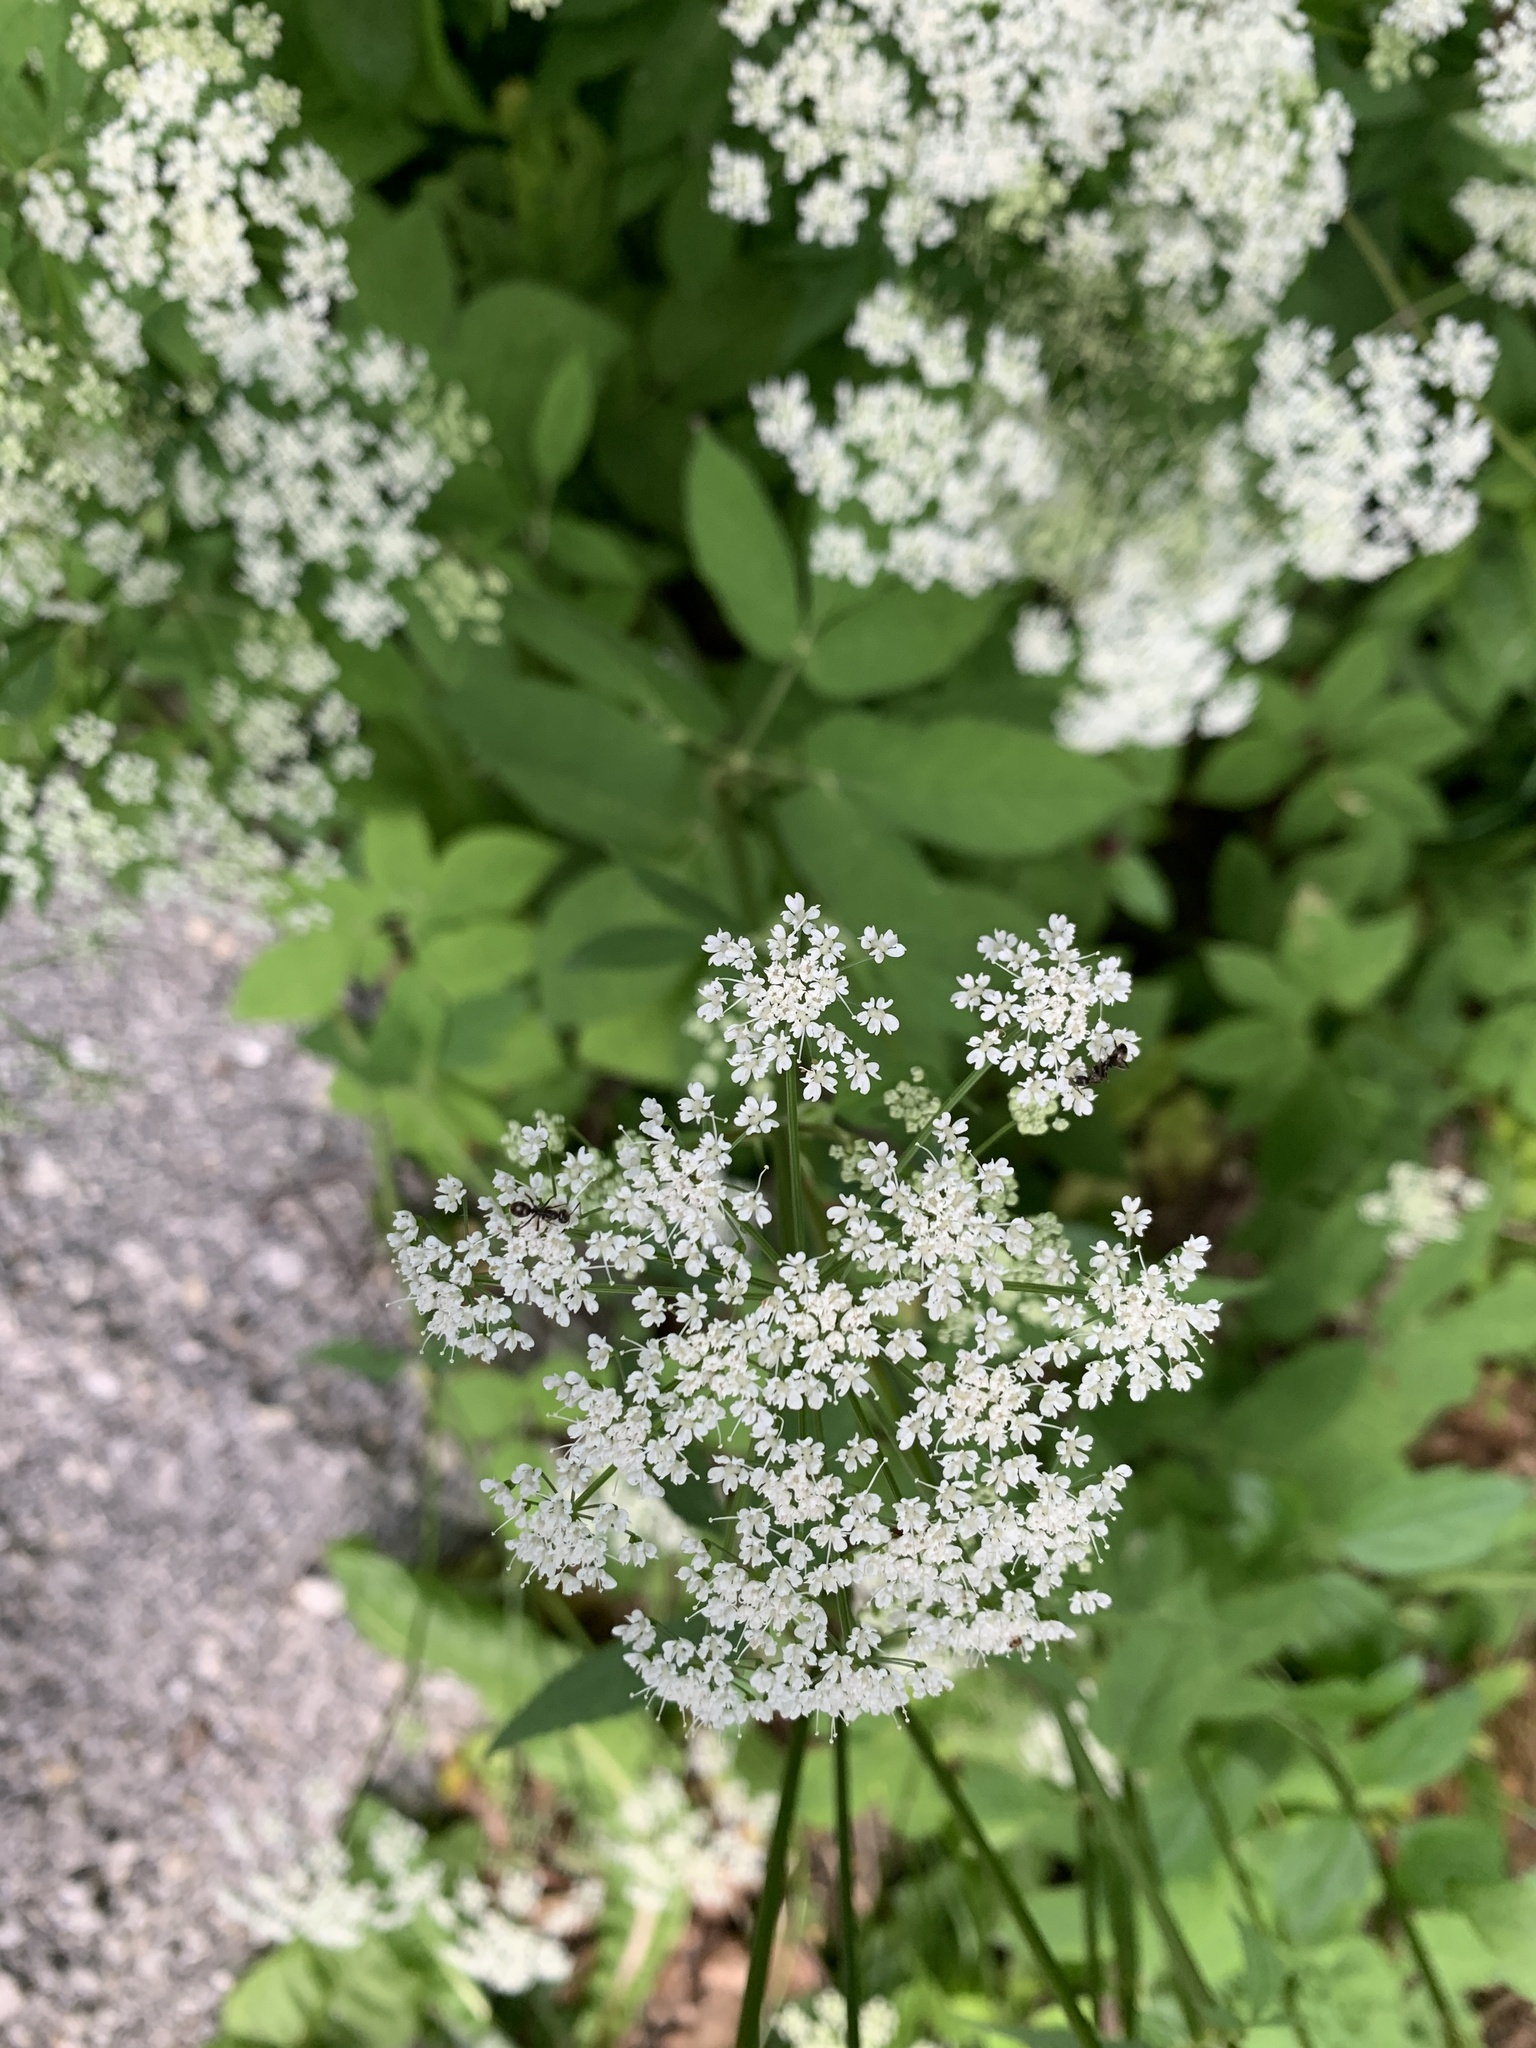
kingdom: Plantae
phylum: Tracheophyta
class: Magnoliopsida
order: Apiales
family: Apiaceae
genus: Aegopodium
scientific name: Aegopodium podagraria
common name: Ground-elder
